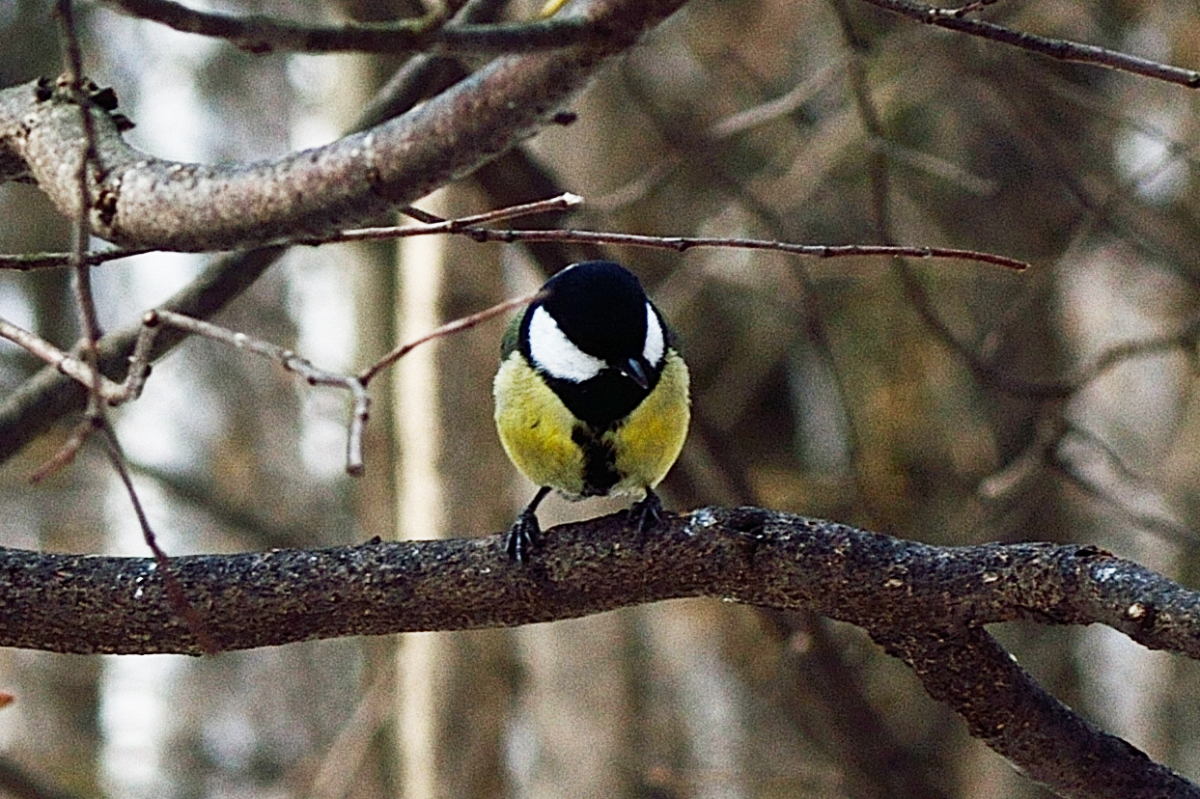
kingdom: Animalia
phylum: Chordata
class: Aves
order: Passeriformes
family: Paridae
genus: Parus
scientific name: Parus major
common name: Great tit
